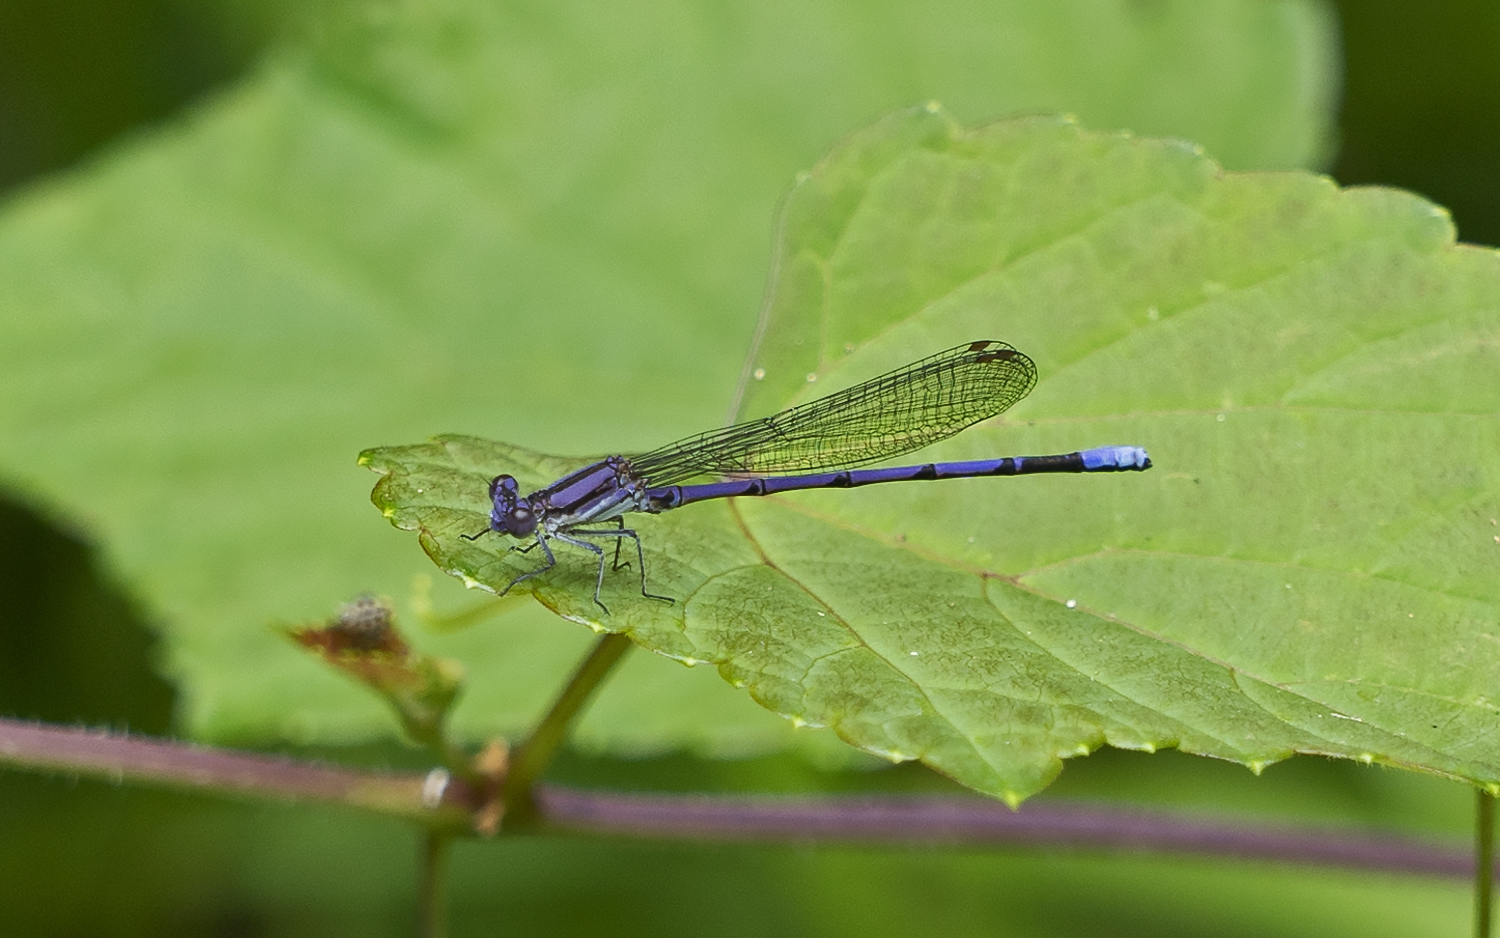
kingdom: Animalia
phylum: Arthropoda
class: Insecta
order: Odonata
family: Coenagrionidae
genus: Argia
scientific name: Argia fumipennis
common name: Variable dancer
